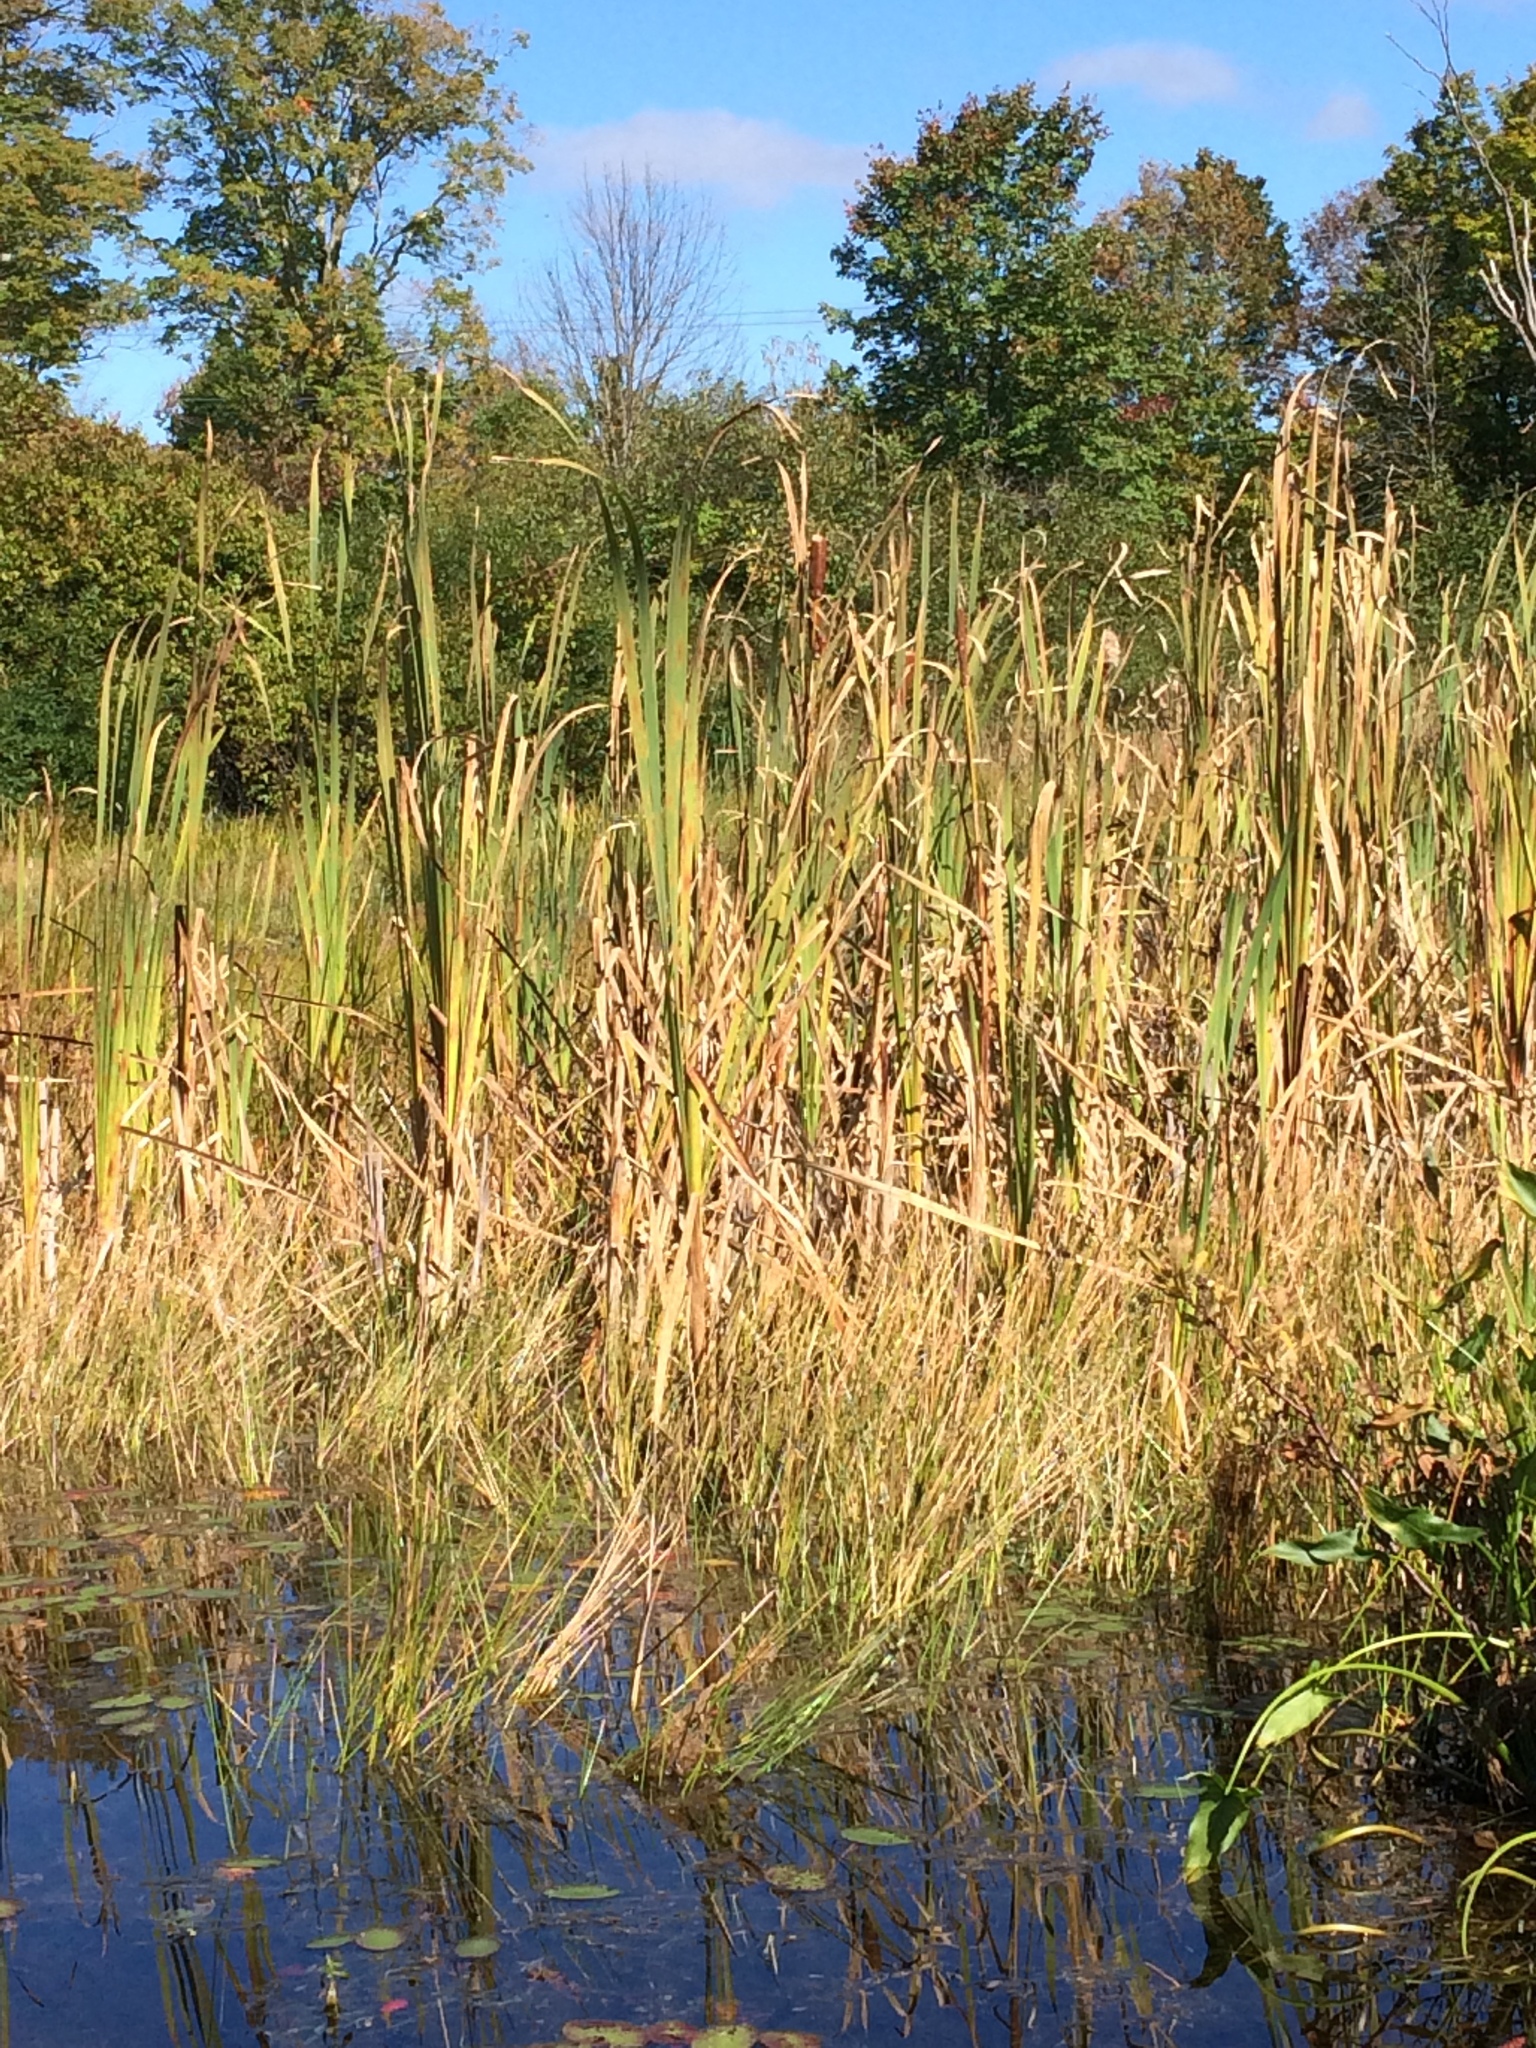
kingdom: Plantae
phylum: Tracheophyta
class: Liliopsida
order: Poales
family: Typhaceae
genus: Typha
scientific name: Typha latifolia
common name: Broadleaf cattail
